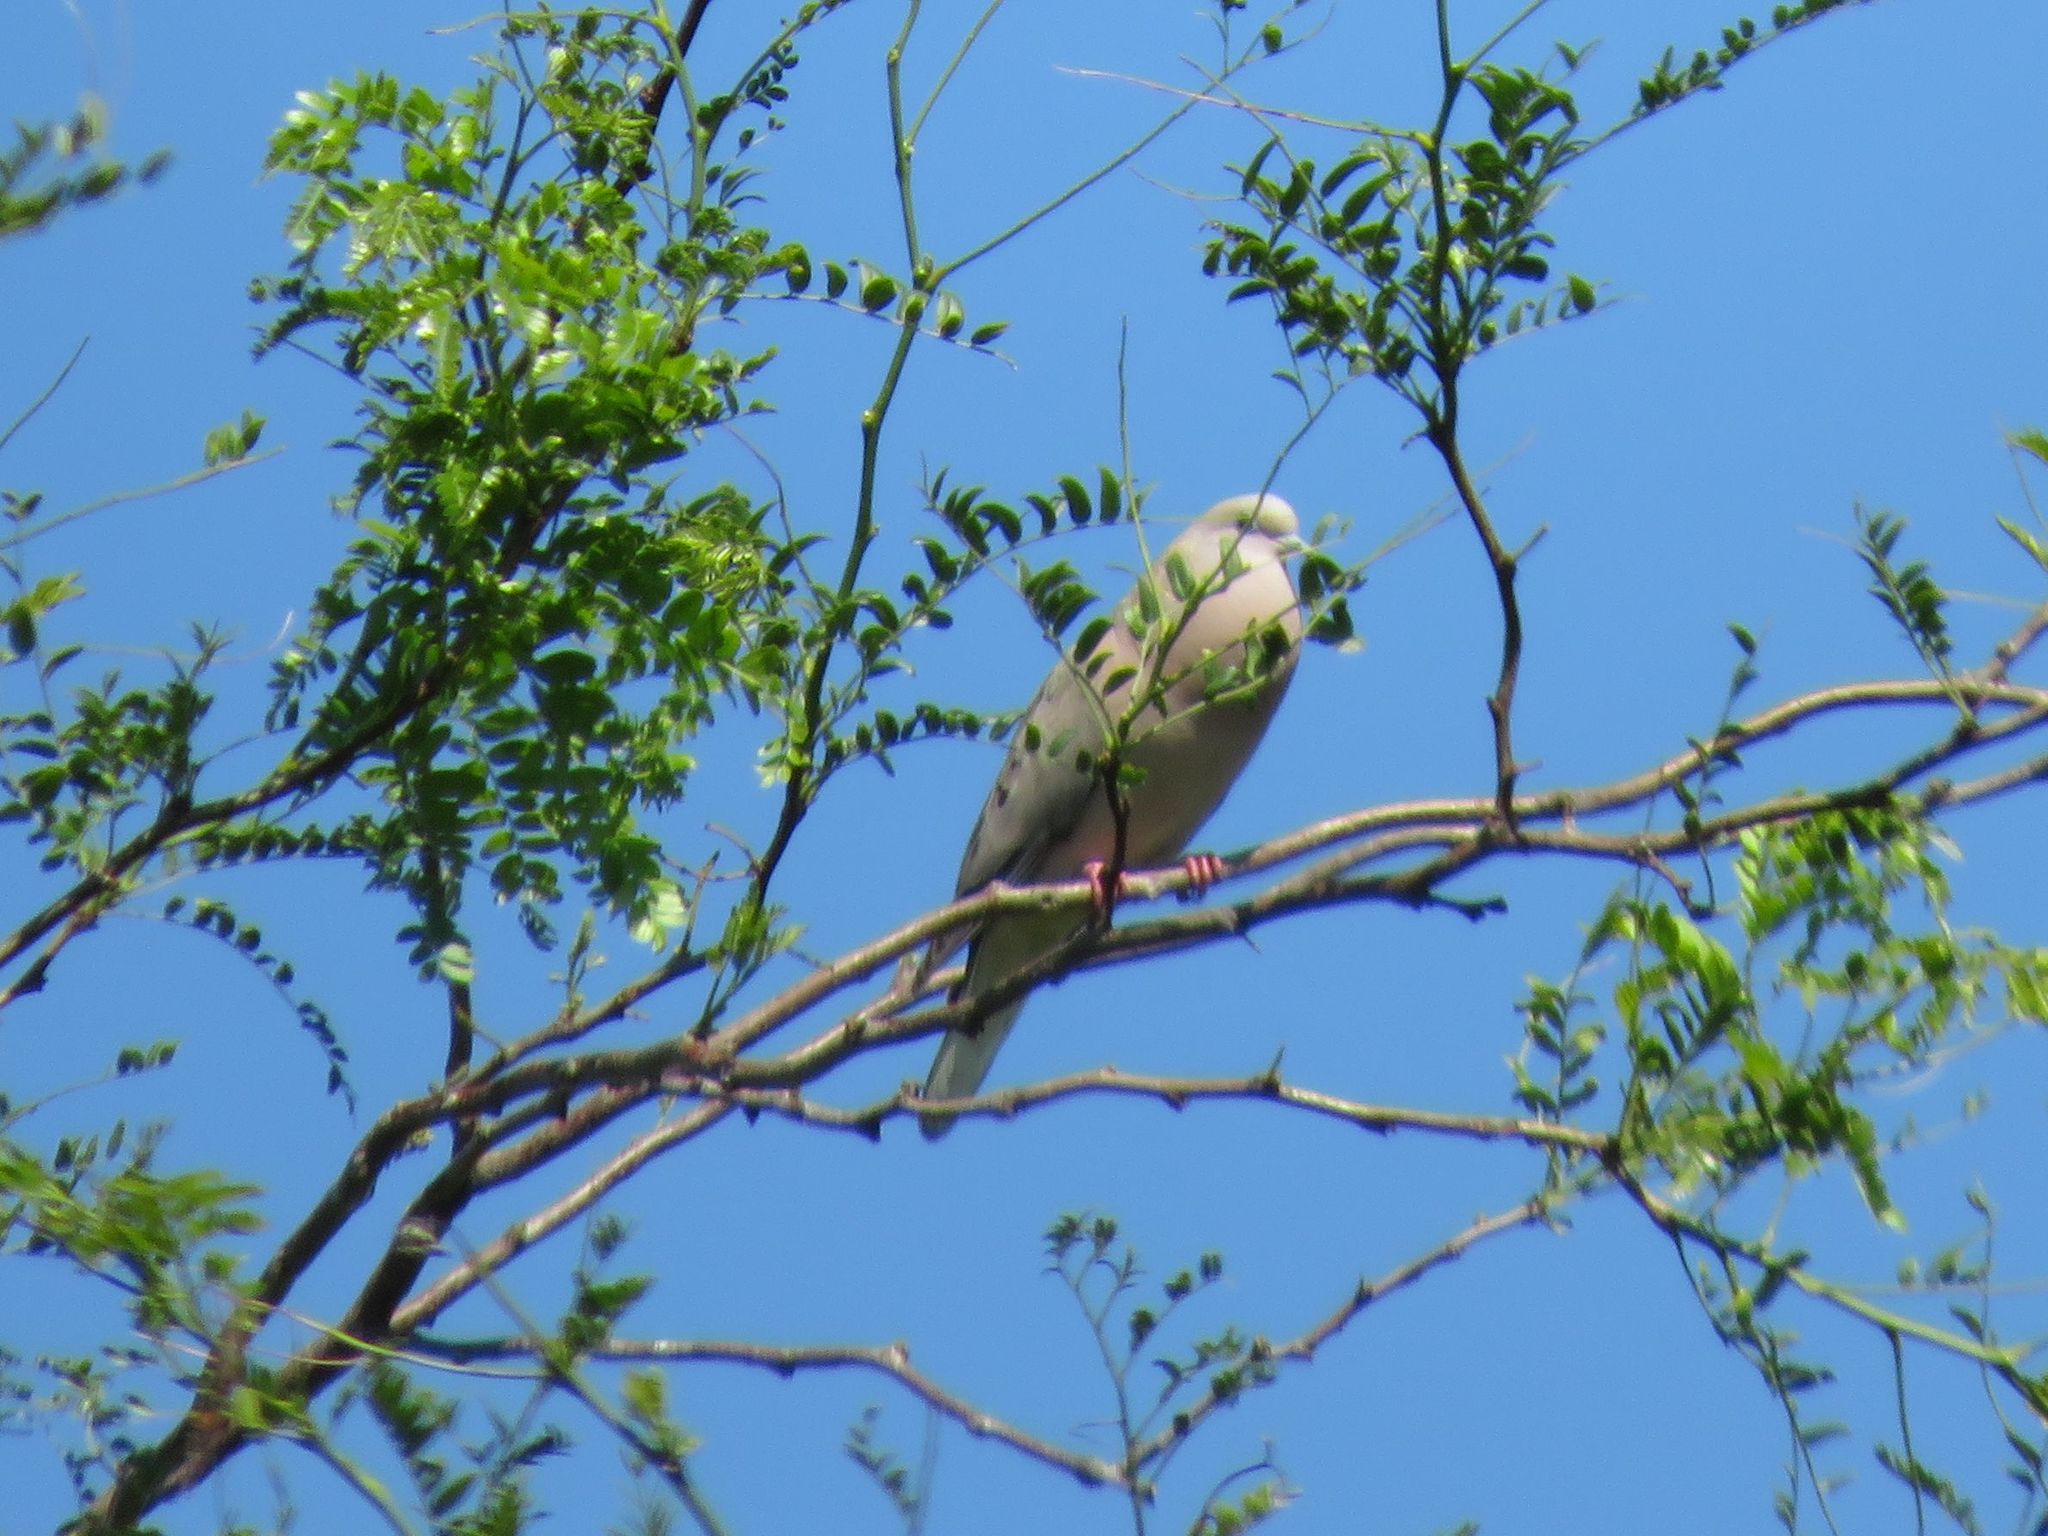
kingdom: Animalia
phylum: Chordata
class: Aves
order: Columbiformes
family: Columbidae
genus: Zenaida
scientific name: Zenaida auriculata
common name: Eared dove
